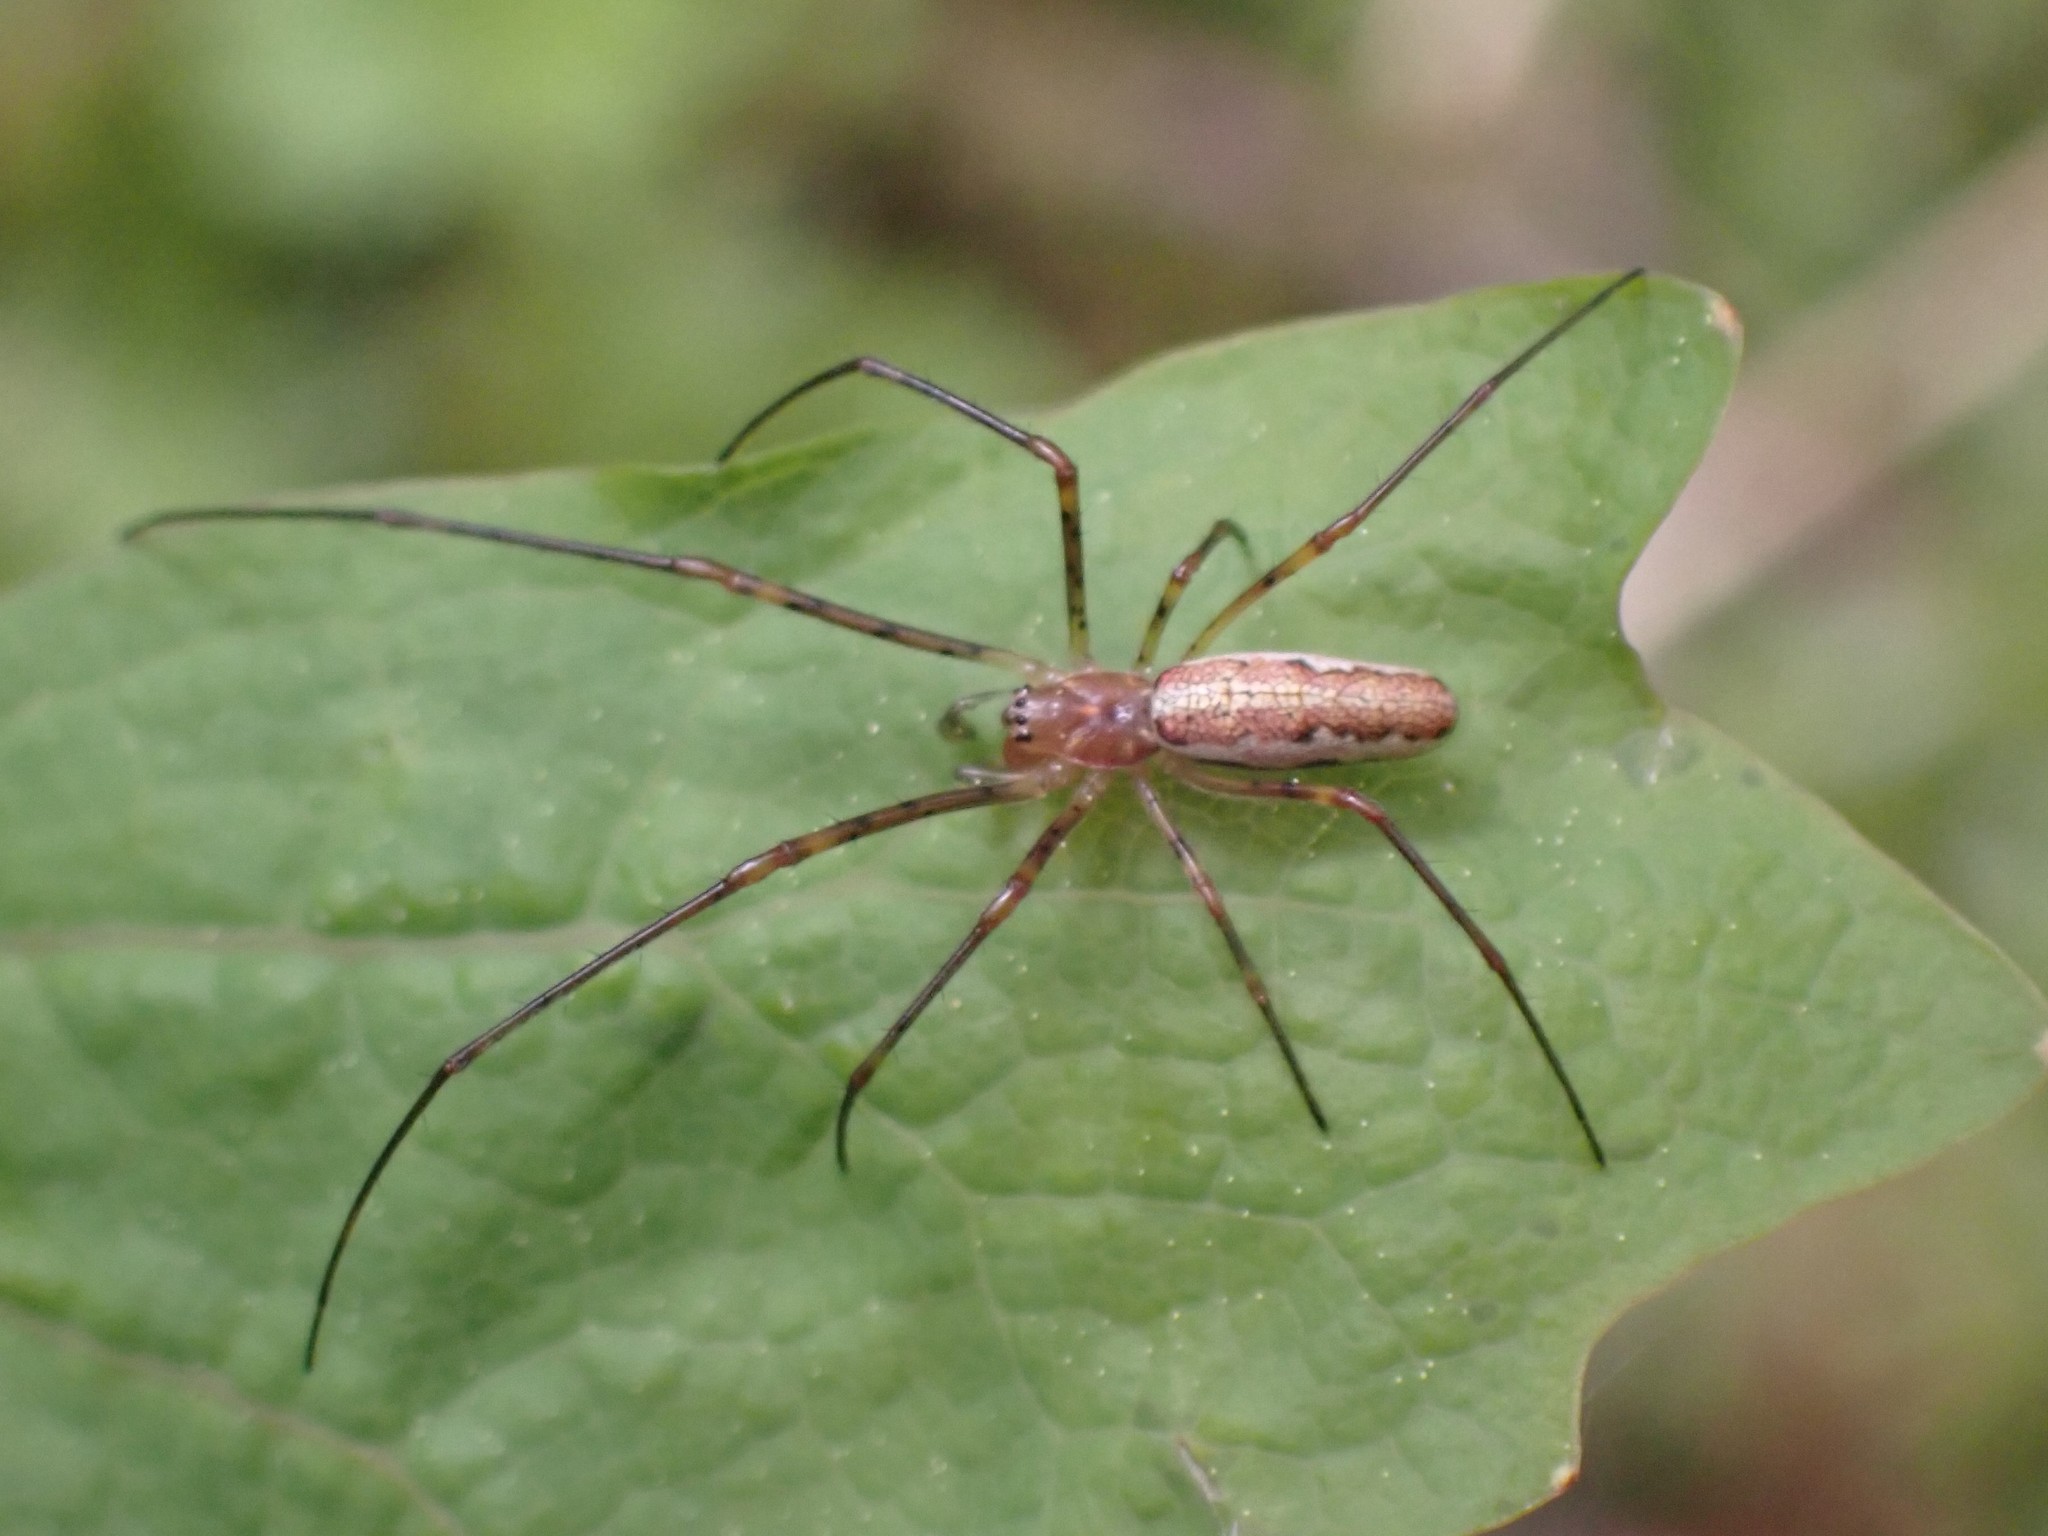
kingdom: Animalia
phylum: Arthropoda
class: Arachnida
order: Araneae
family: Tetragnathidae
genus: Tetragnatha
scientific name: Tetragnatha versicolor
